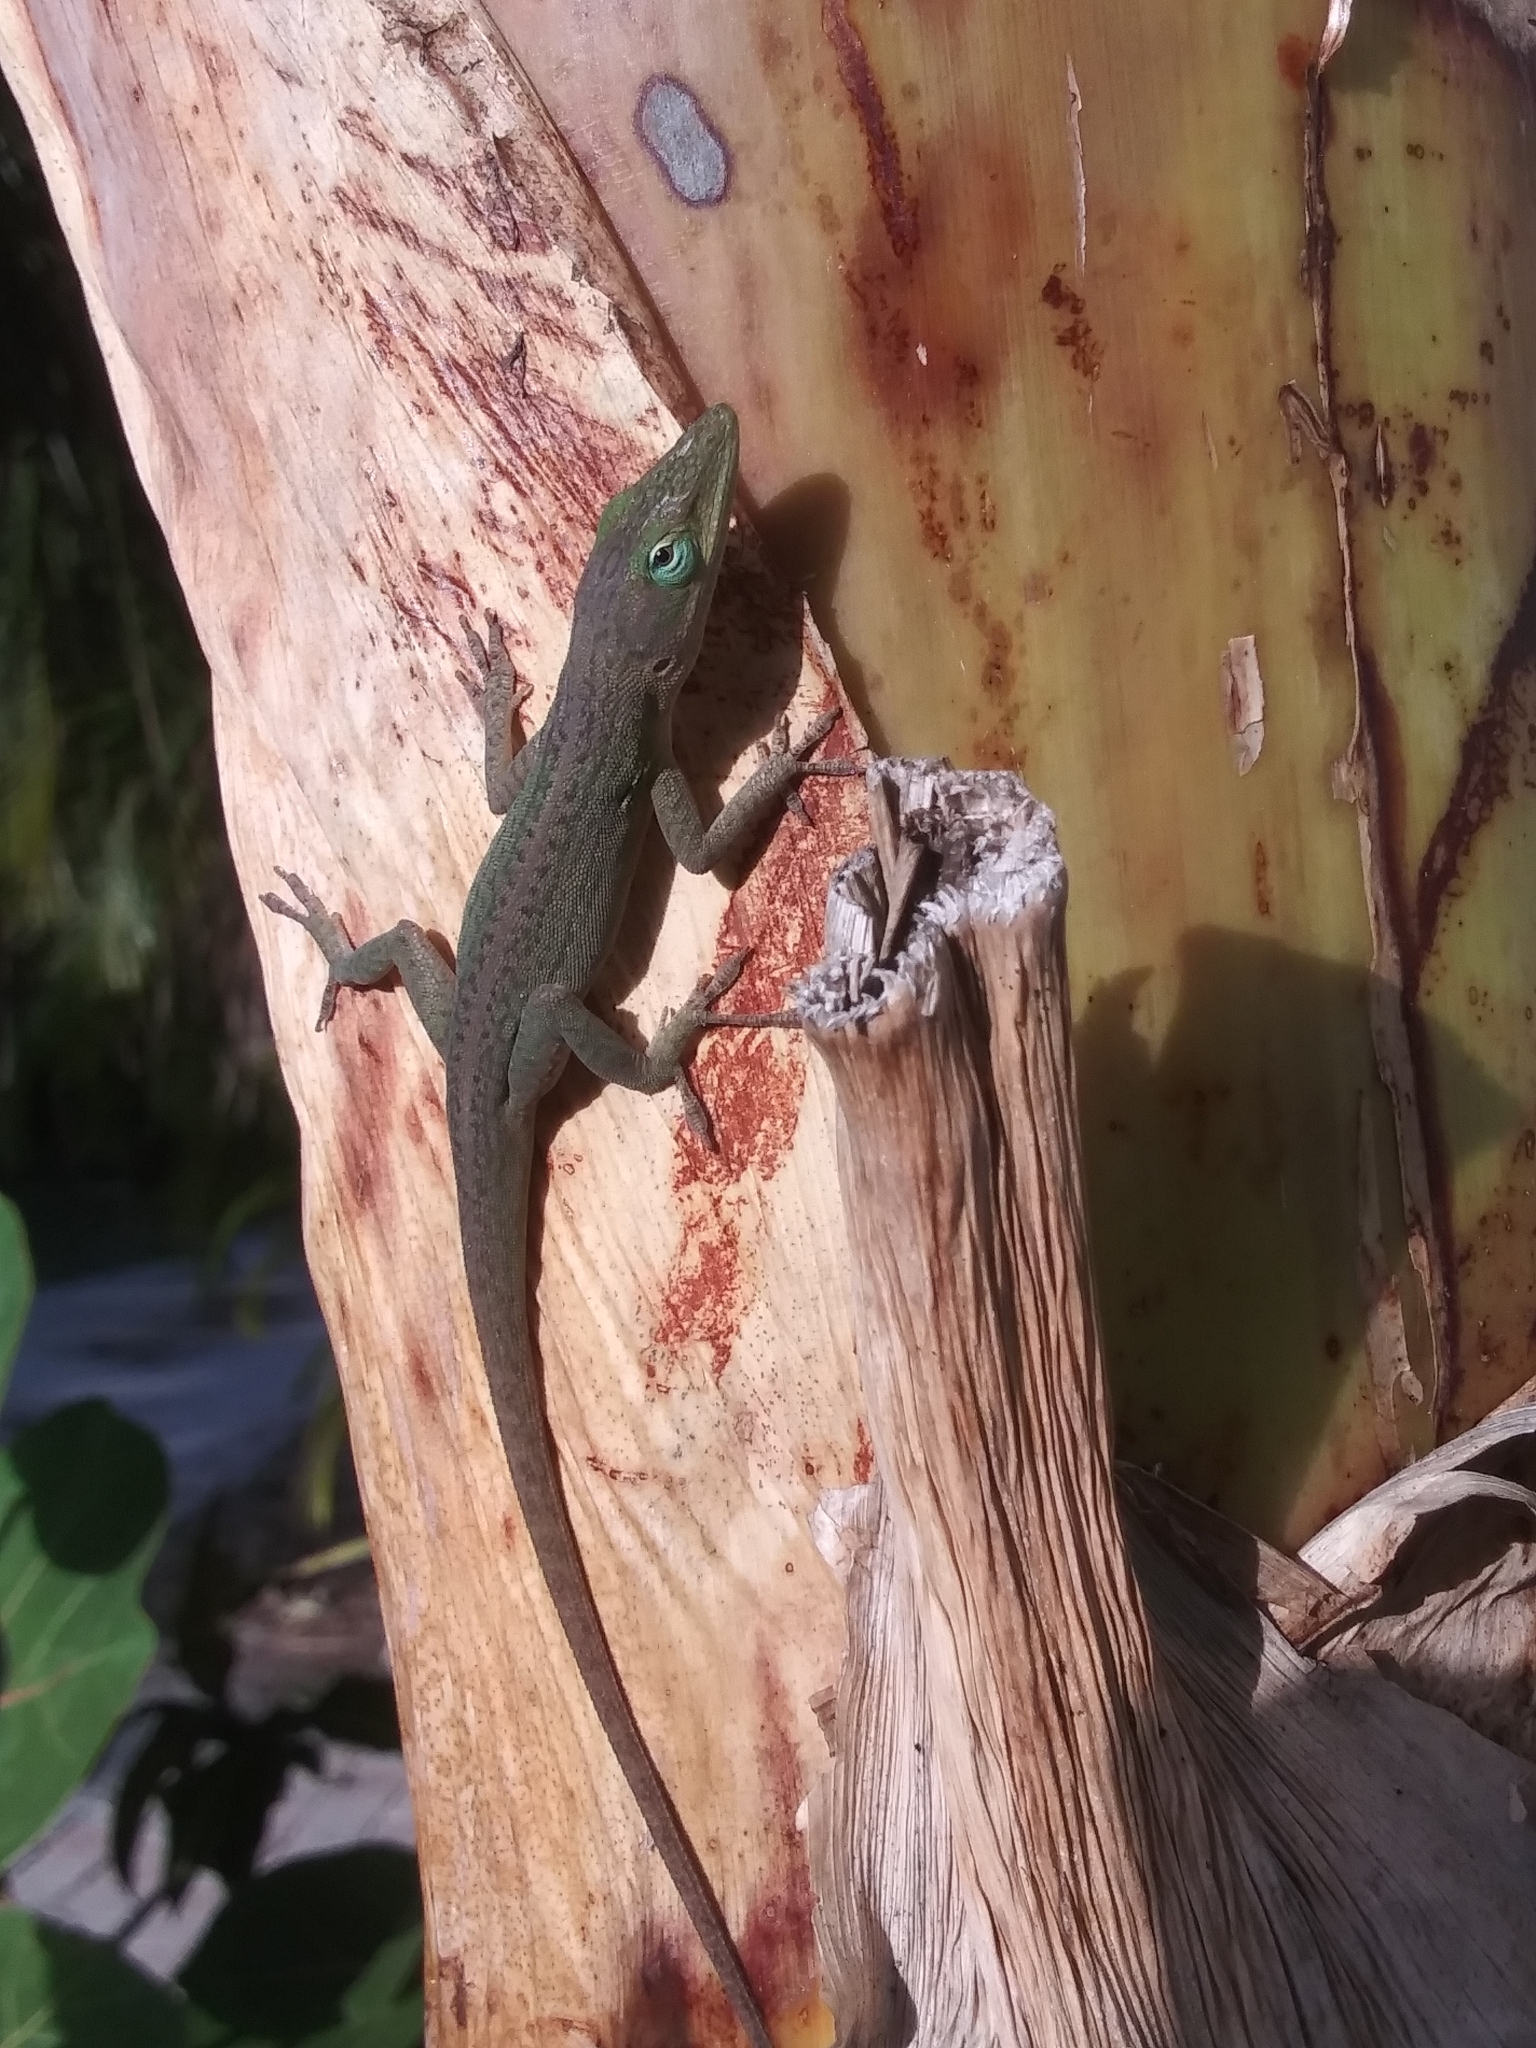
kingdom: Animalia
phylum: Chordata
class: Squamata
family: Dactyloidae
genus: Anolis
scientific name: Anolis carolinensis
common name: Green anole
